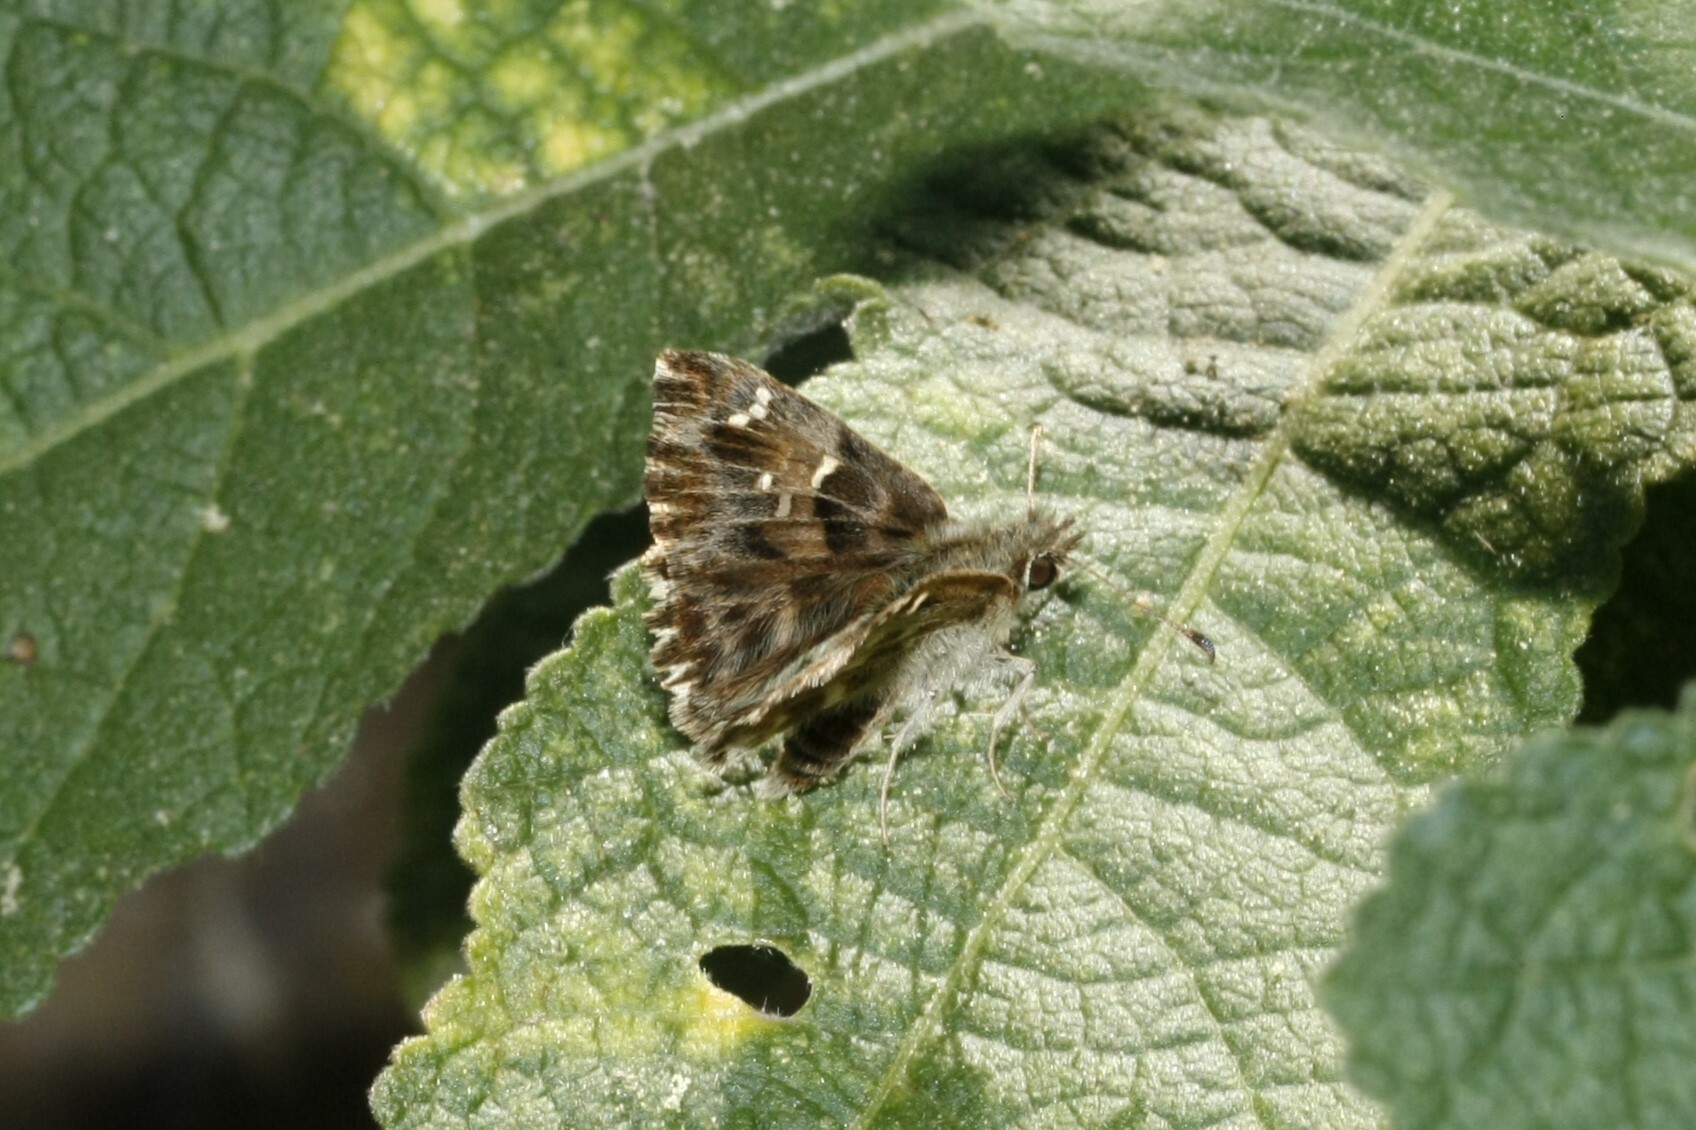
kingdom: Animalia
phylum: Arthropoda
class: Insecta
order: Lepidoptera
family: Hesperiidae
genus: Carcharodus
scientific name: Carcharodus alceae
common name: Mallow skipper
